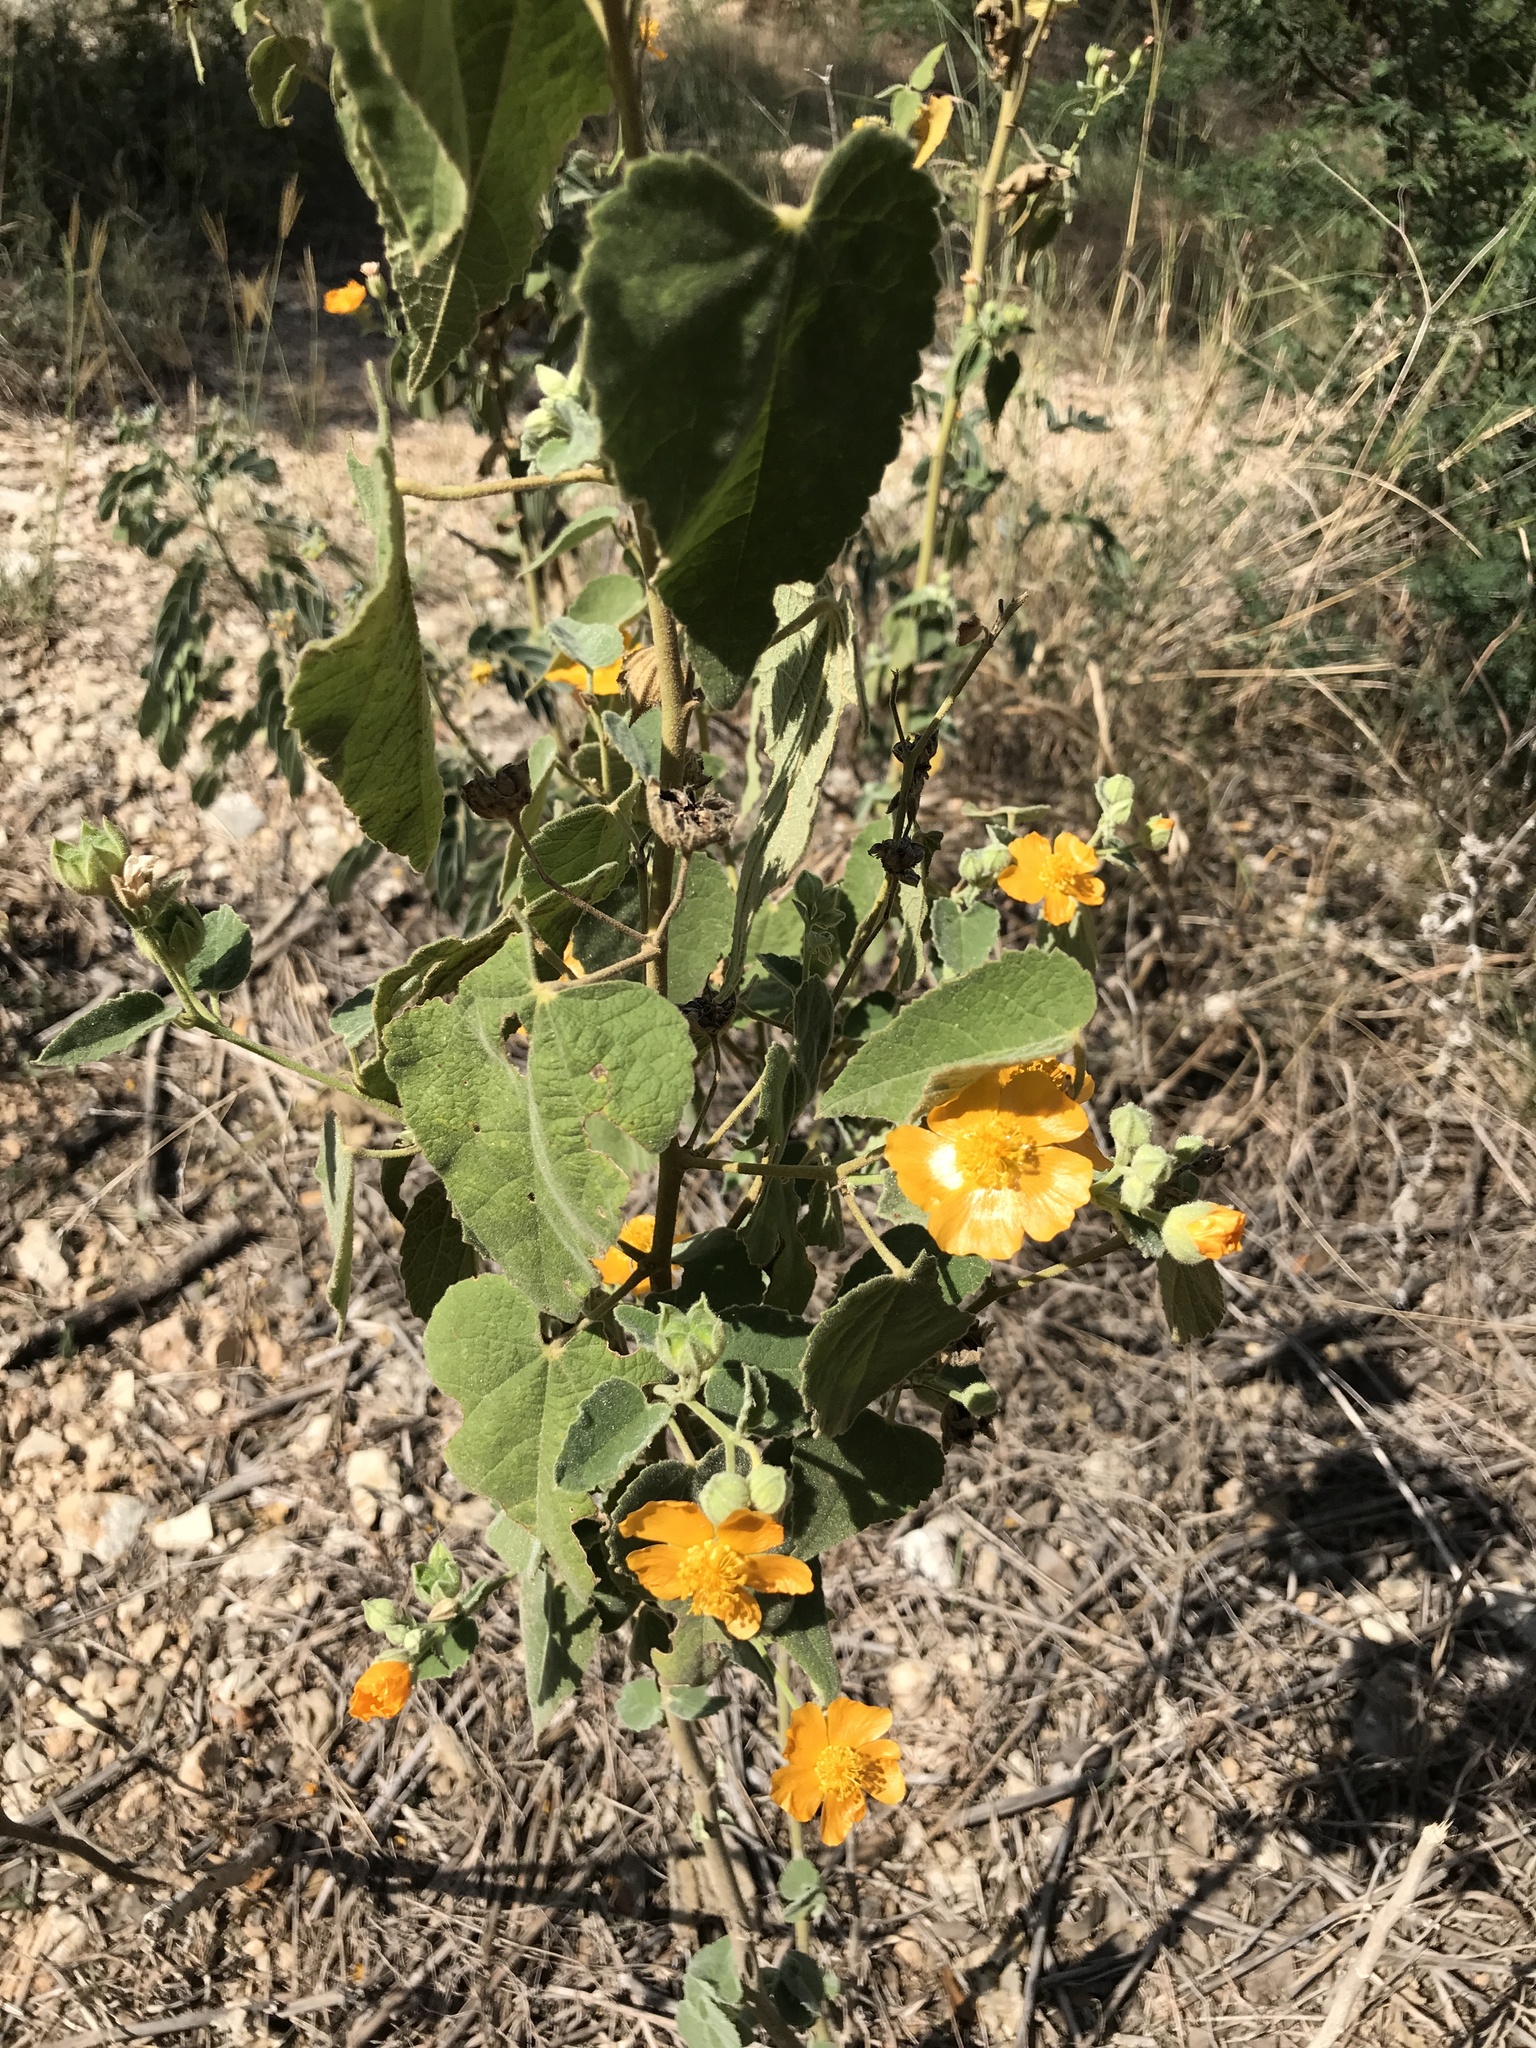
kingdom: Plantae
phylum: Tracheophyta
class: Magnoliopsida
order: Malvales
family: Malvaceae
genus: Allowissadula
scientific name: Allowissadula holosericea
